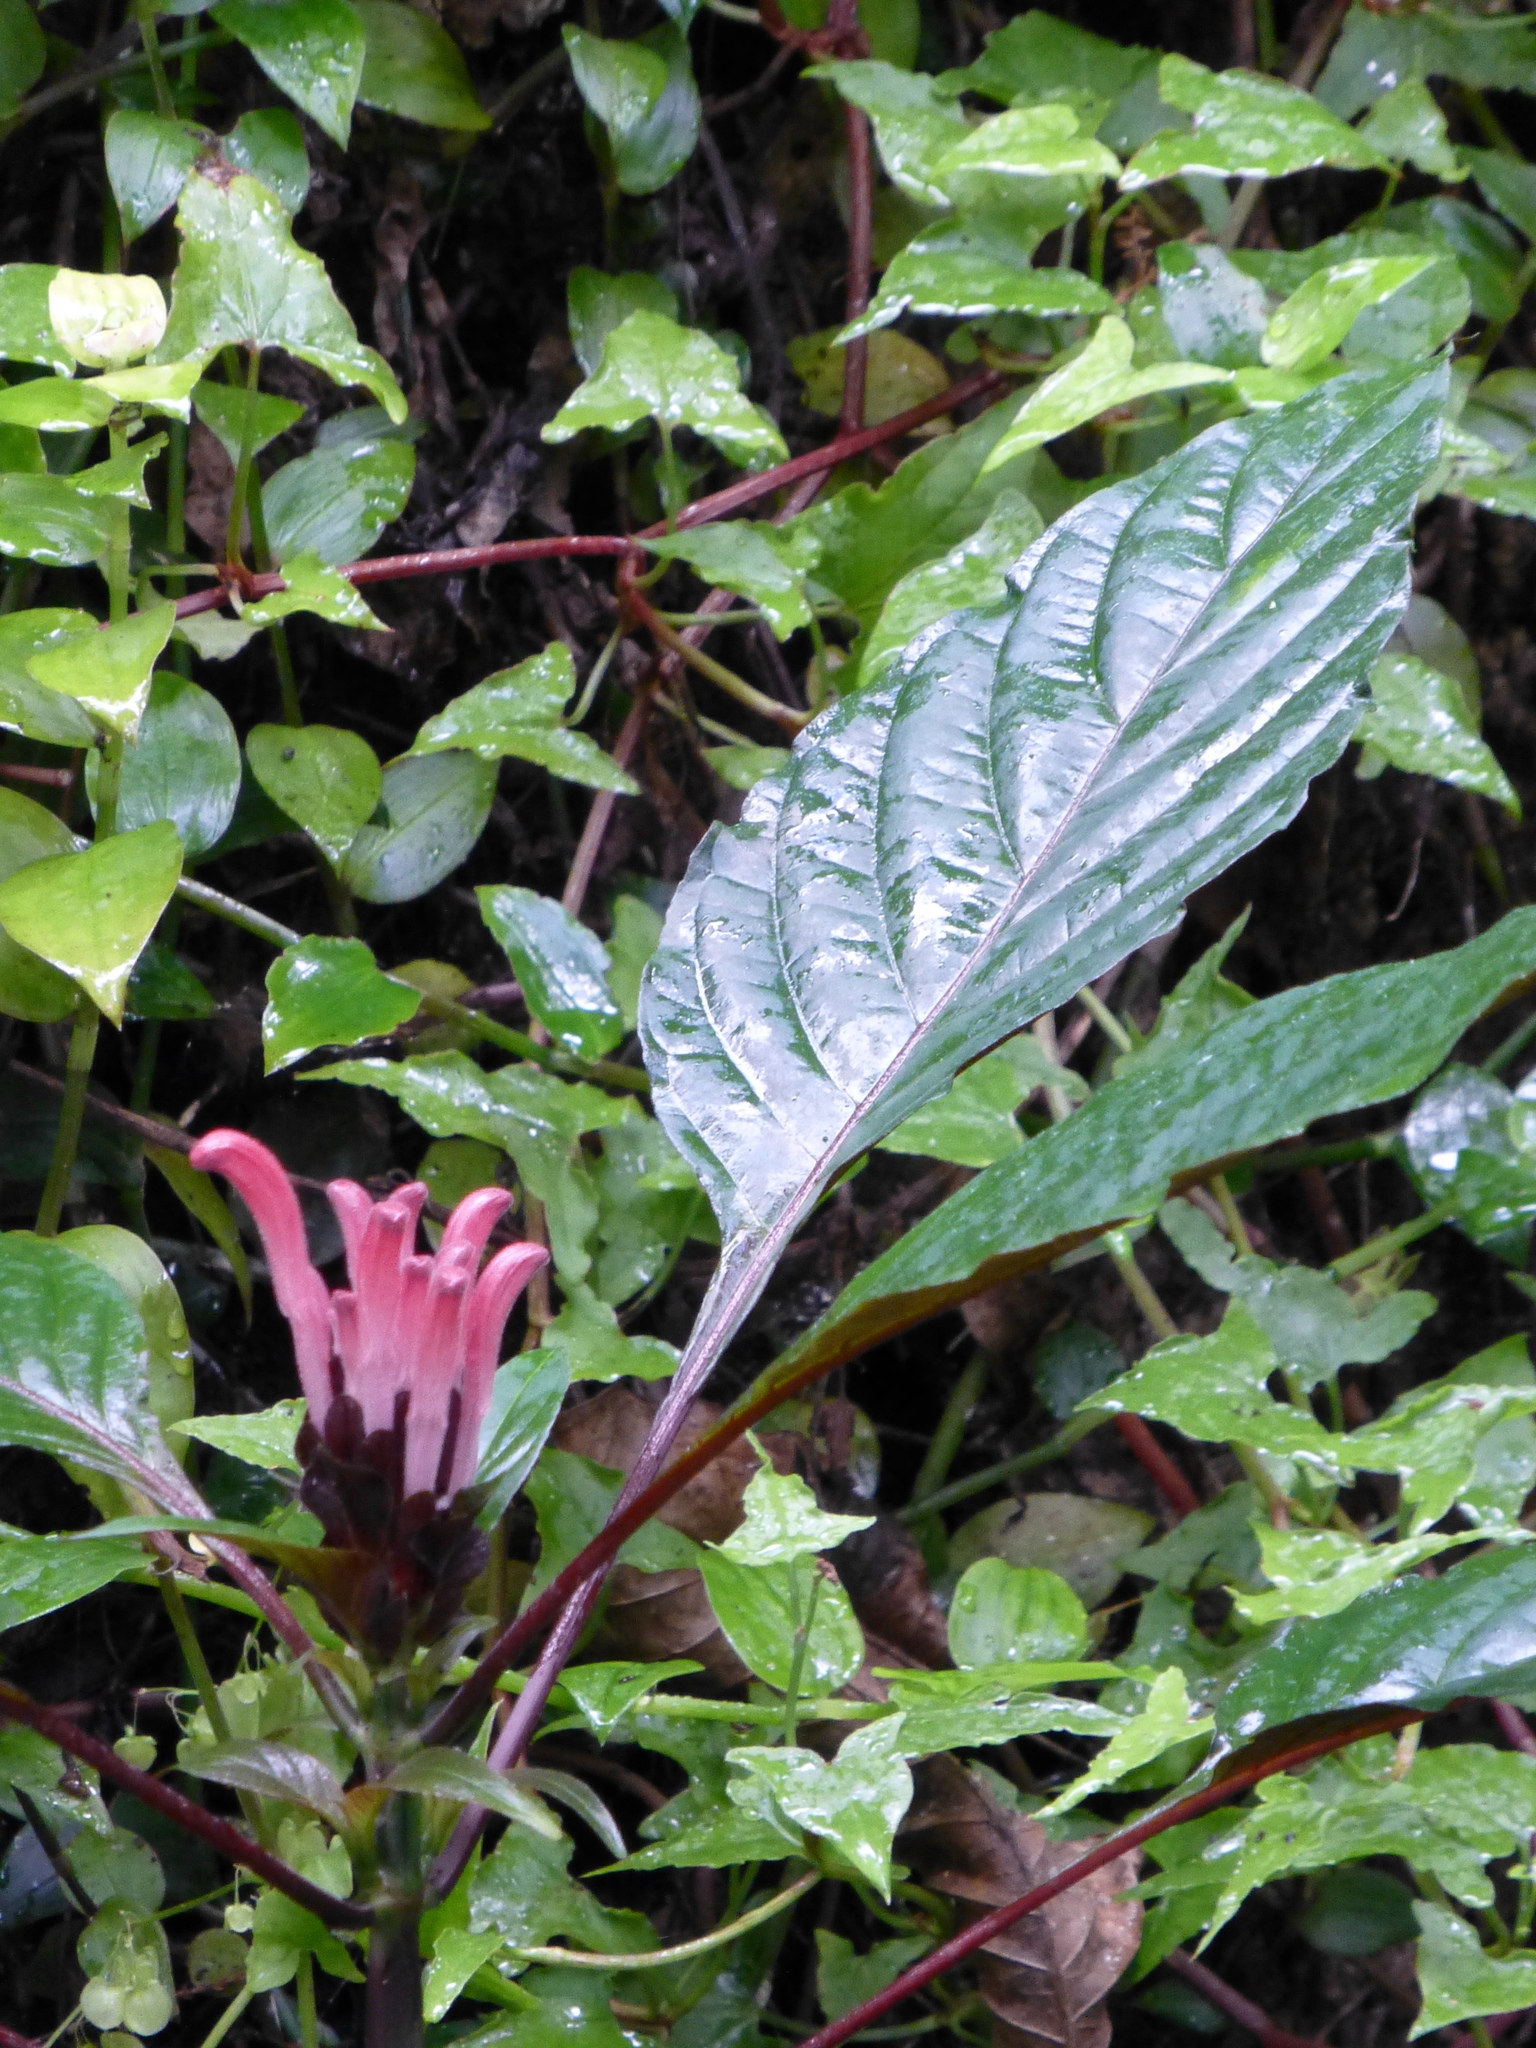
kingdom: Plantae
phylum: Tracheophyta
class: Magnoliopsida
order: Lamiales
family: Acanthaceae
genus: Justicia
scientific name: Justicia carnea
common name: Brazilian-plume
